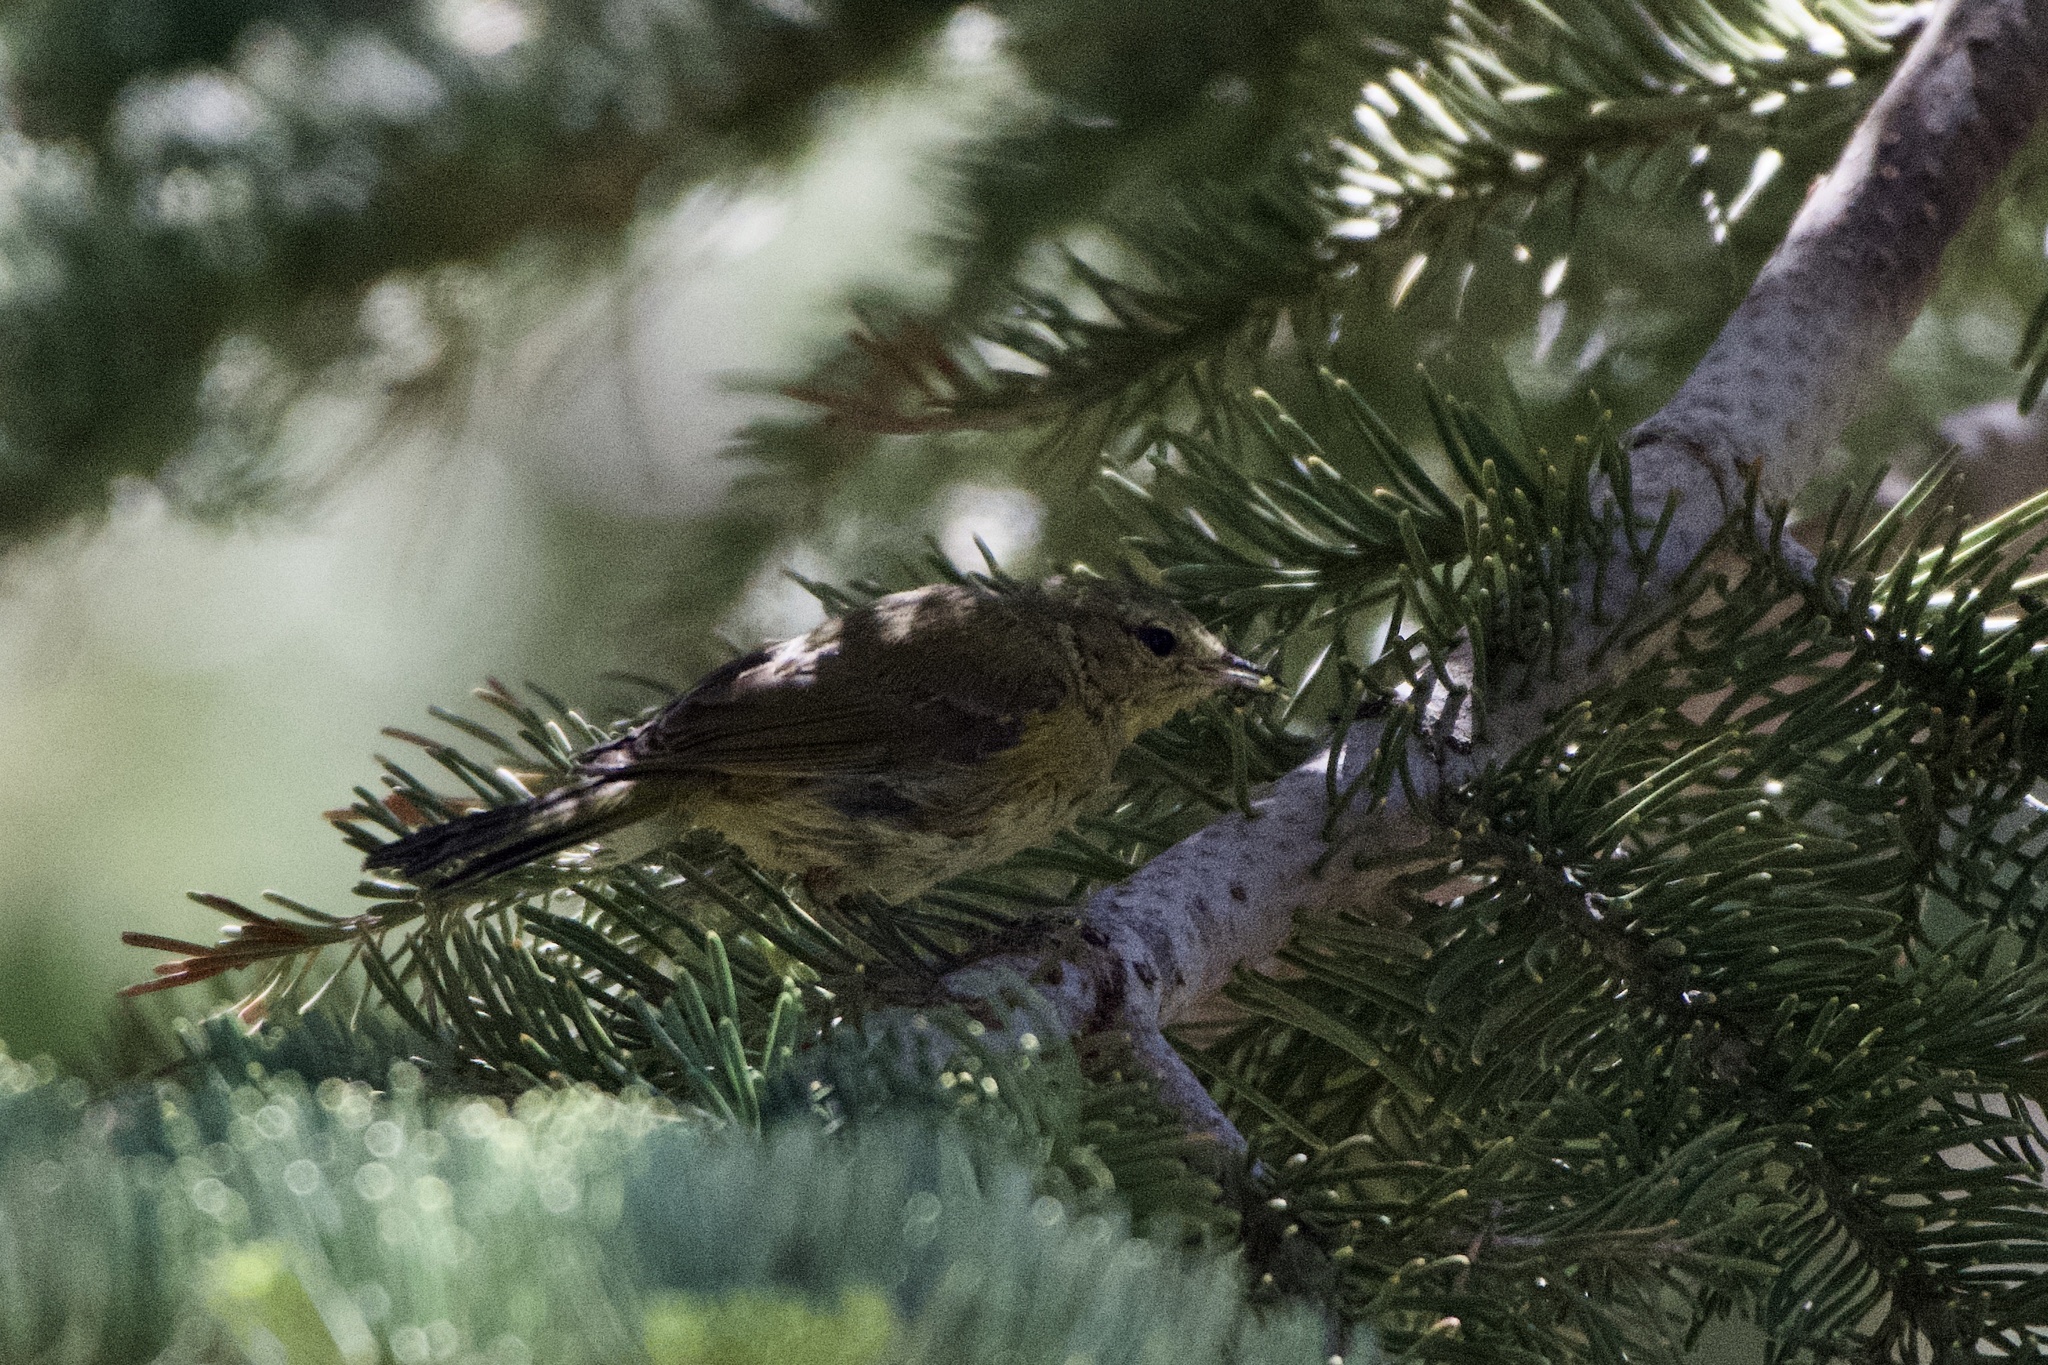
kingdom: Animalia
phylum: Chordata
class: Aves
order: Passeriformes
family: Parulidae
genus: Leiothlypis
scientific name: Leiothlypis celata
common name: Orange-crowned warbler
